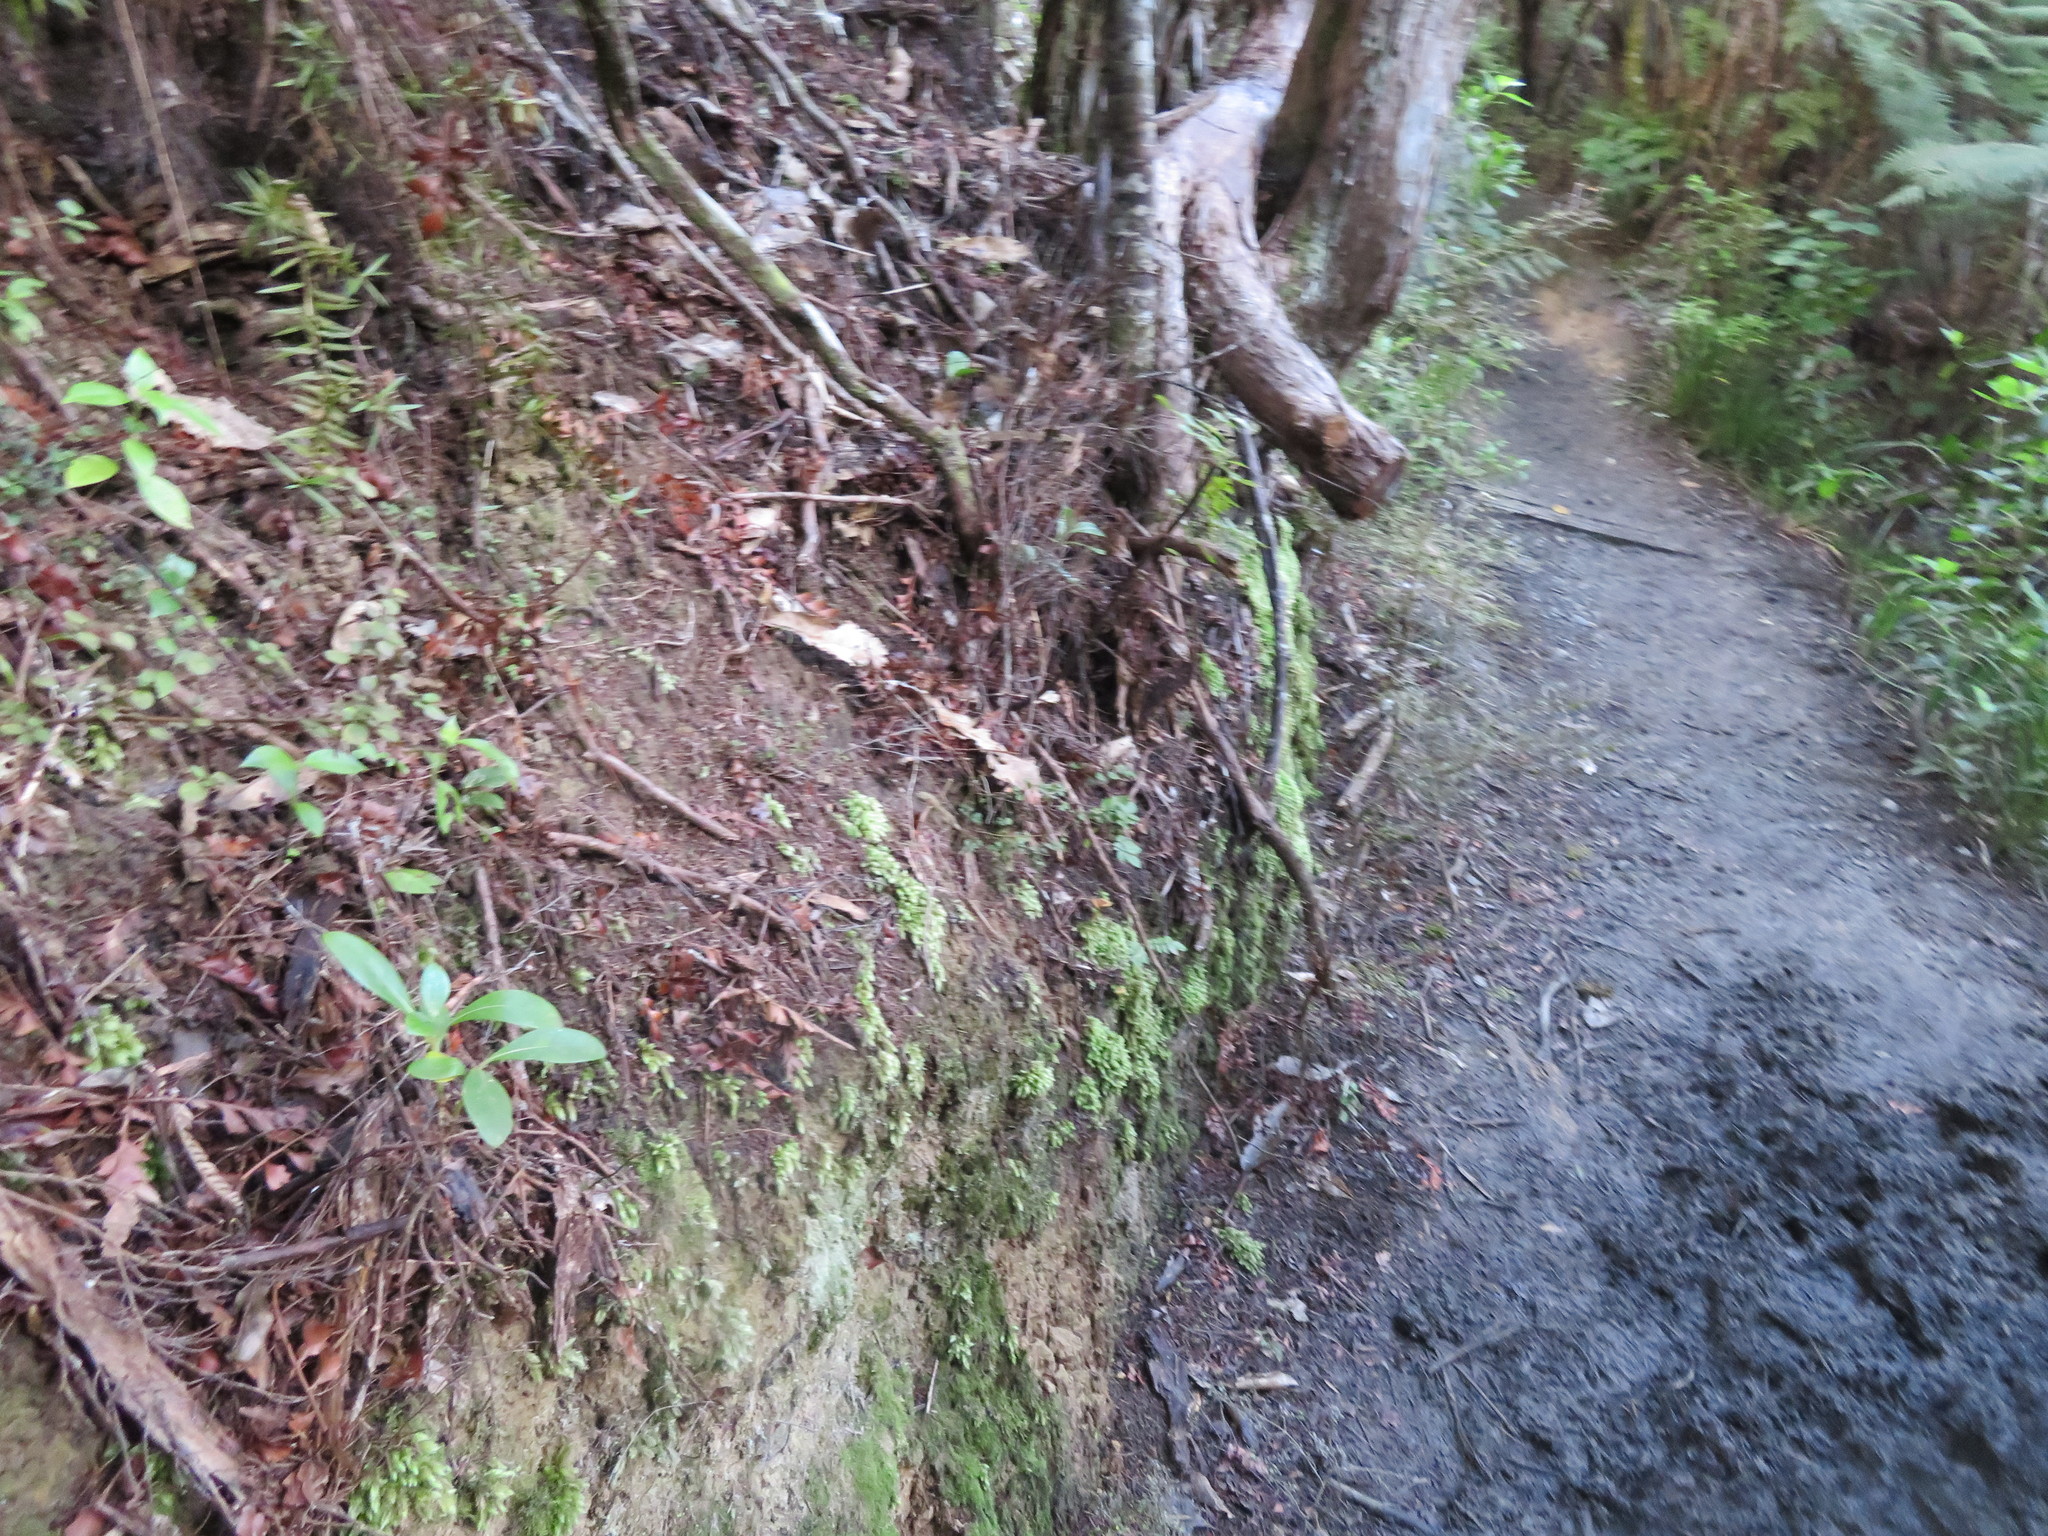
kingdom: Plantae
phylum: Tracheophyta
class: Pinopsida
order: Pinales
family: Podocarpaceae
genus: Podocarpus
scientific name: Podocarpus totara
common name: Totara
